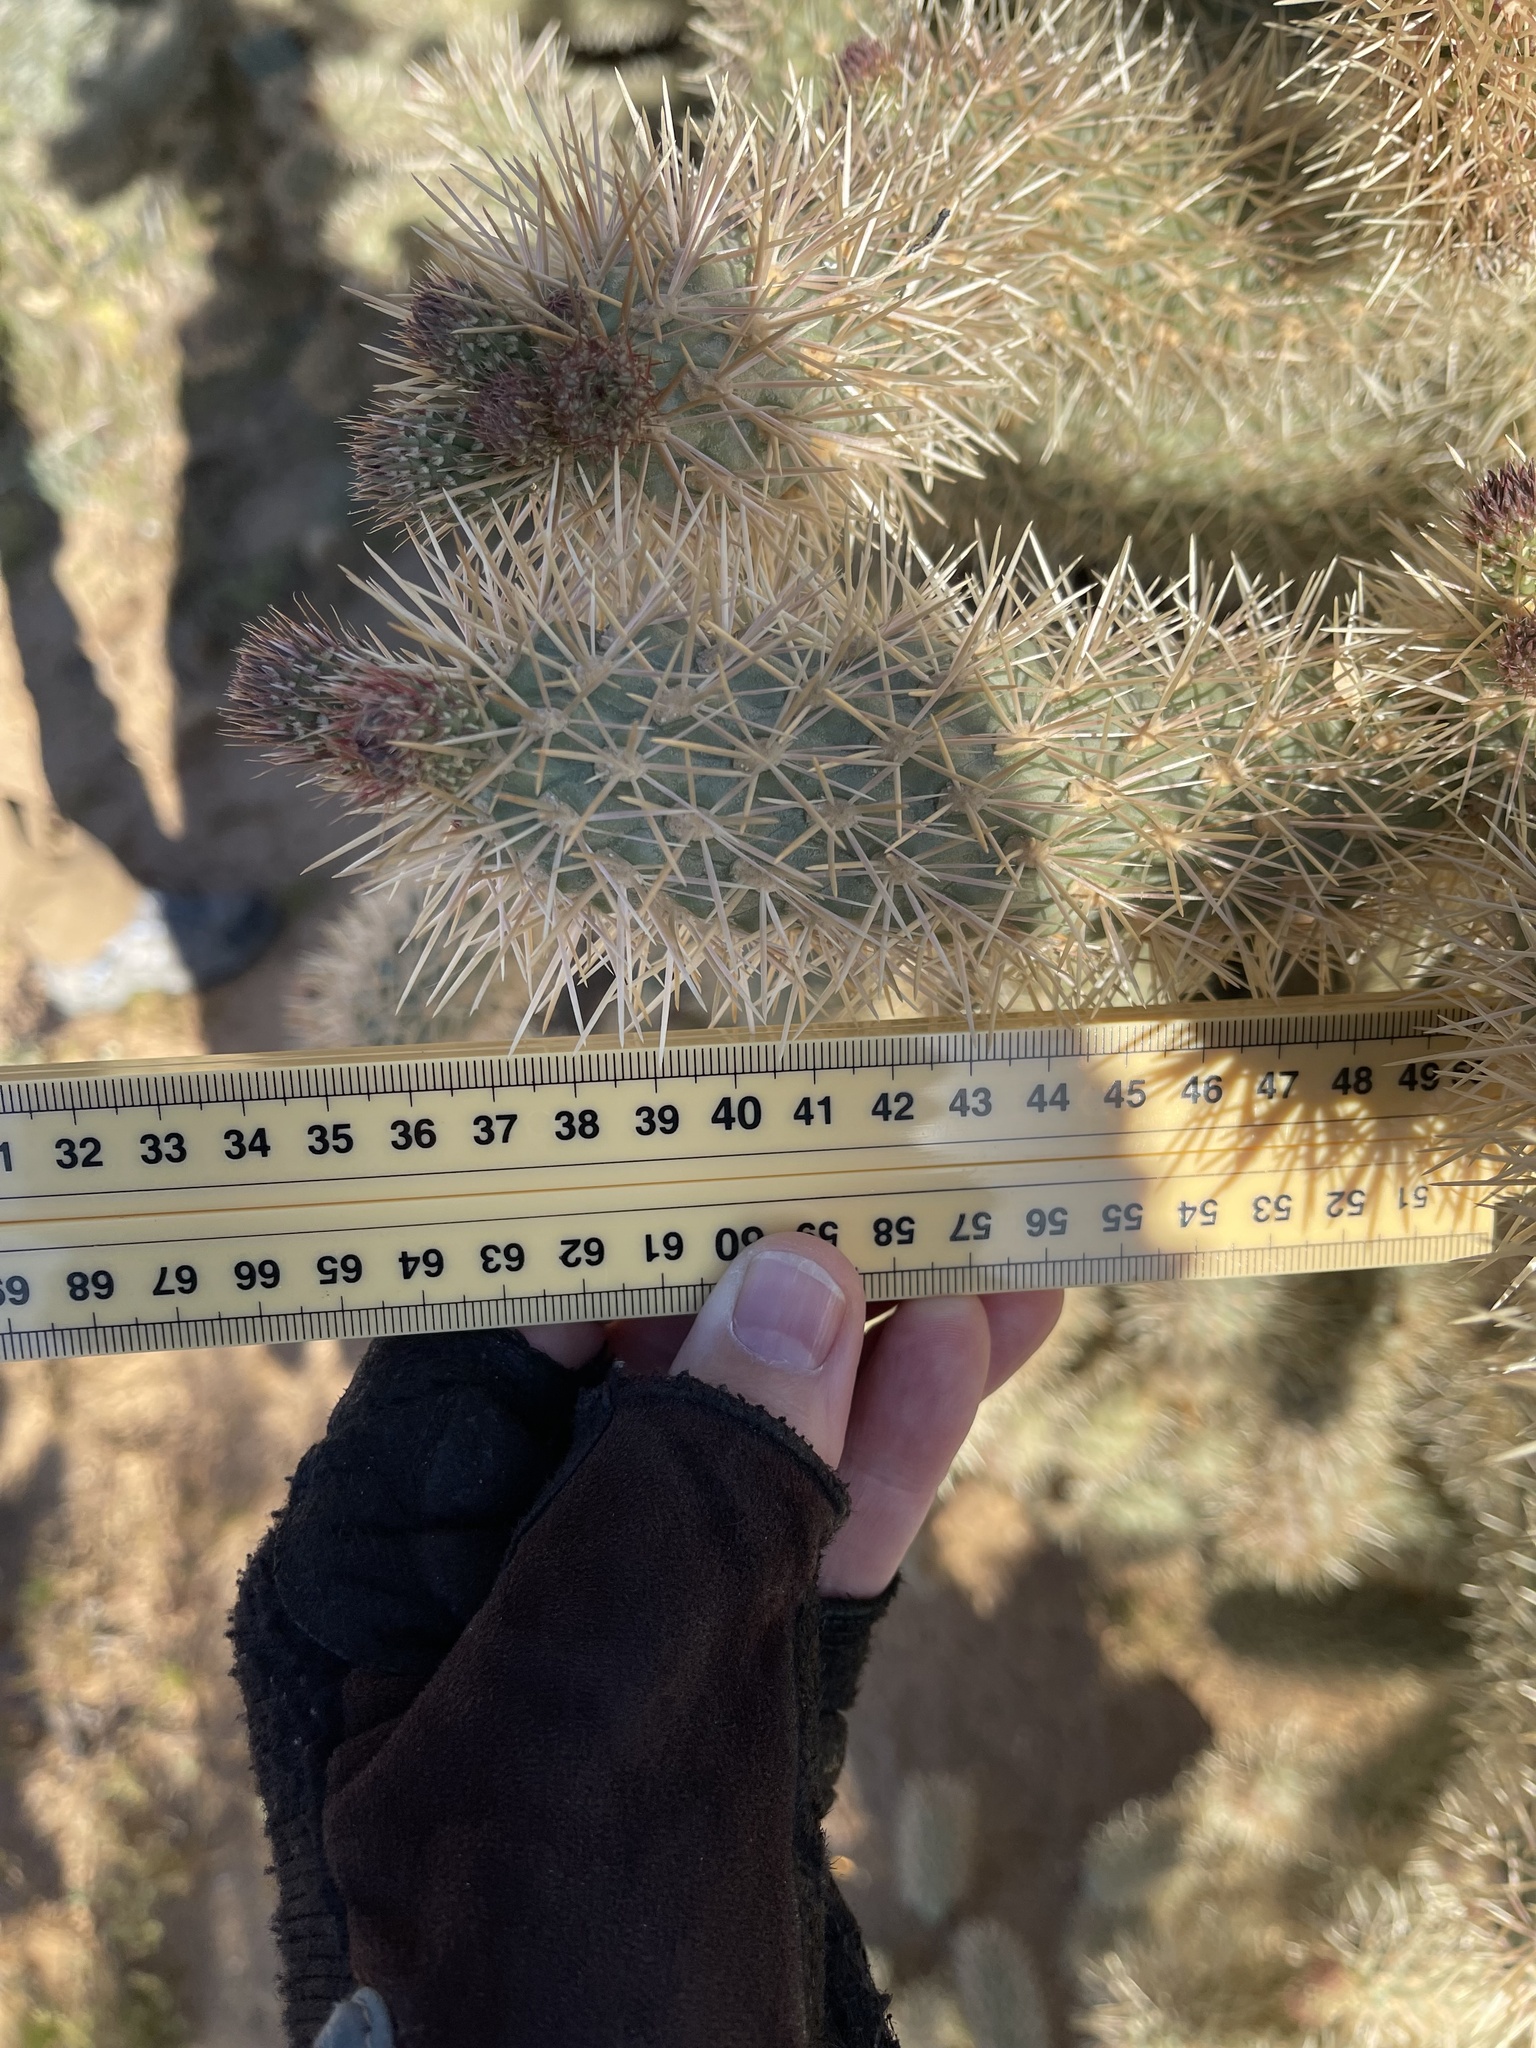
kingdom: Plantae
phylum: Tracheophyta
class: Magnoliopsida
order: Caryophyllales
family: Cactaceae
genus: Cylindropuntia
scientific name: Cylindropuntia fosbergii
